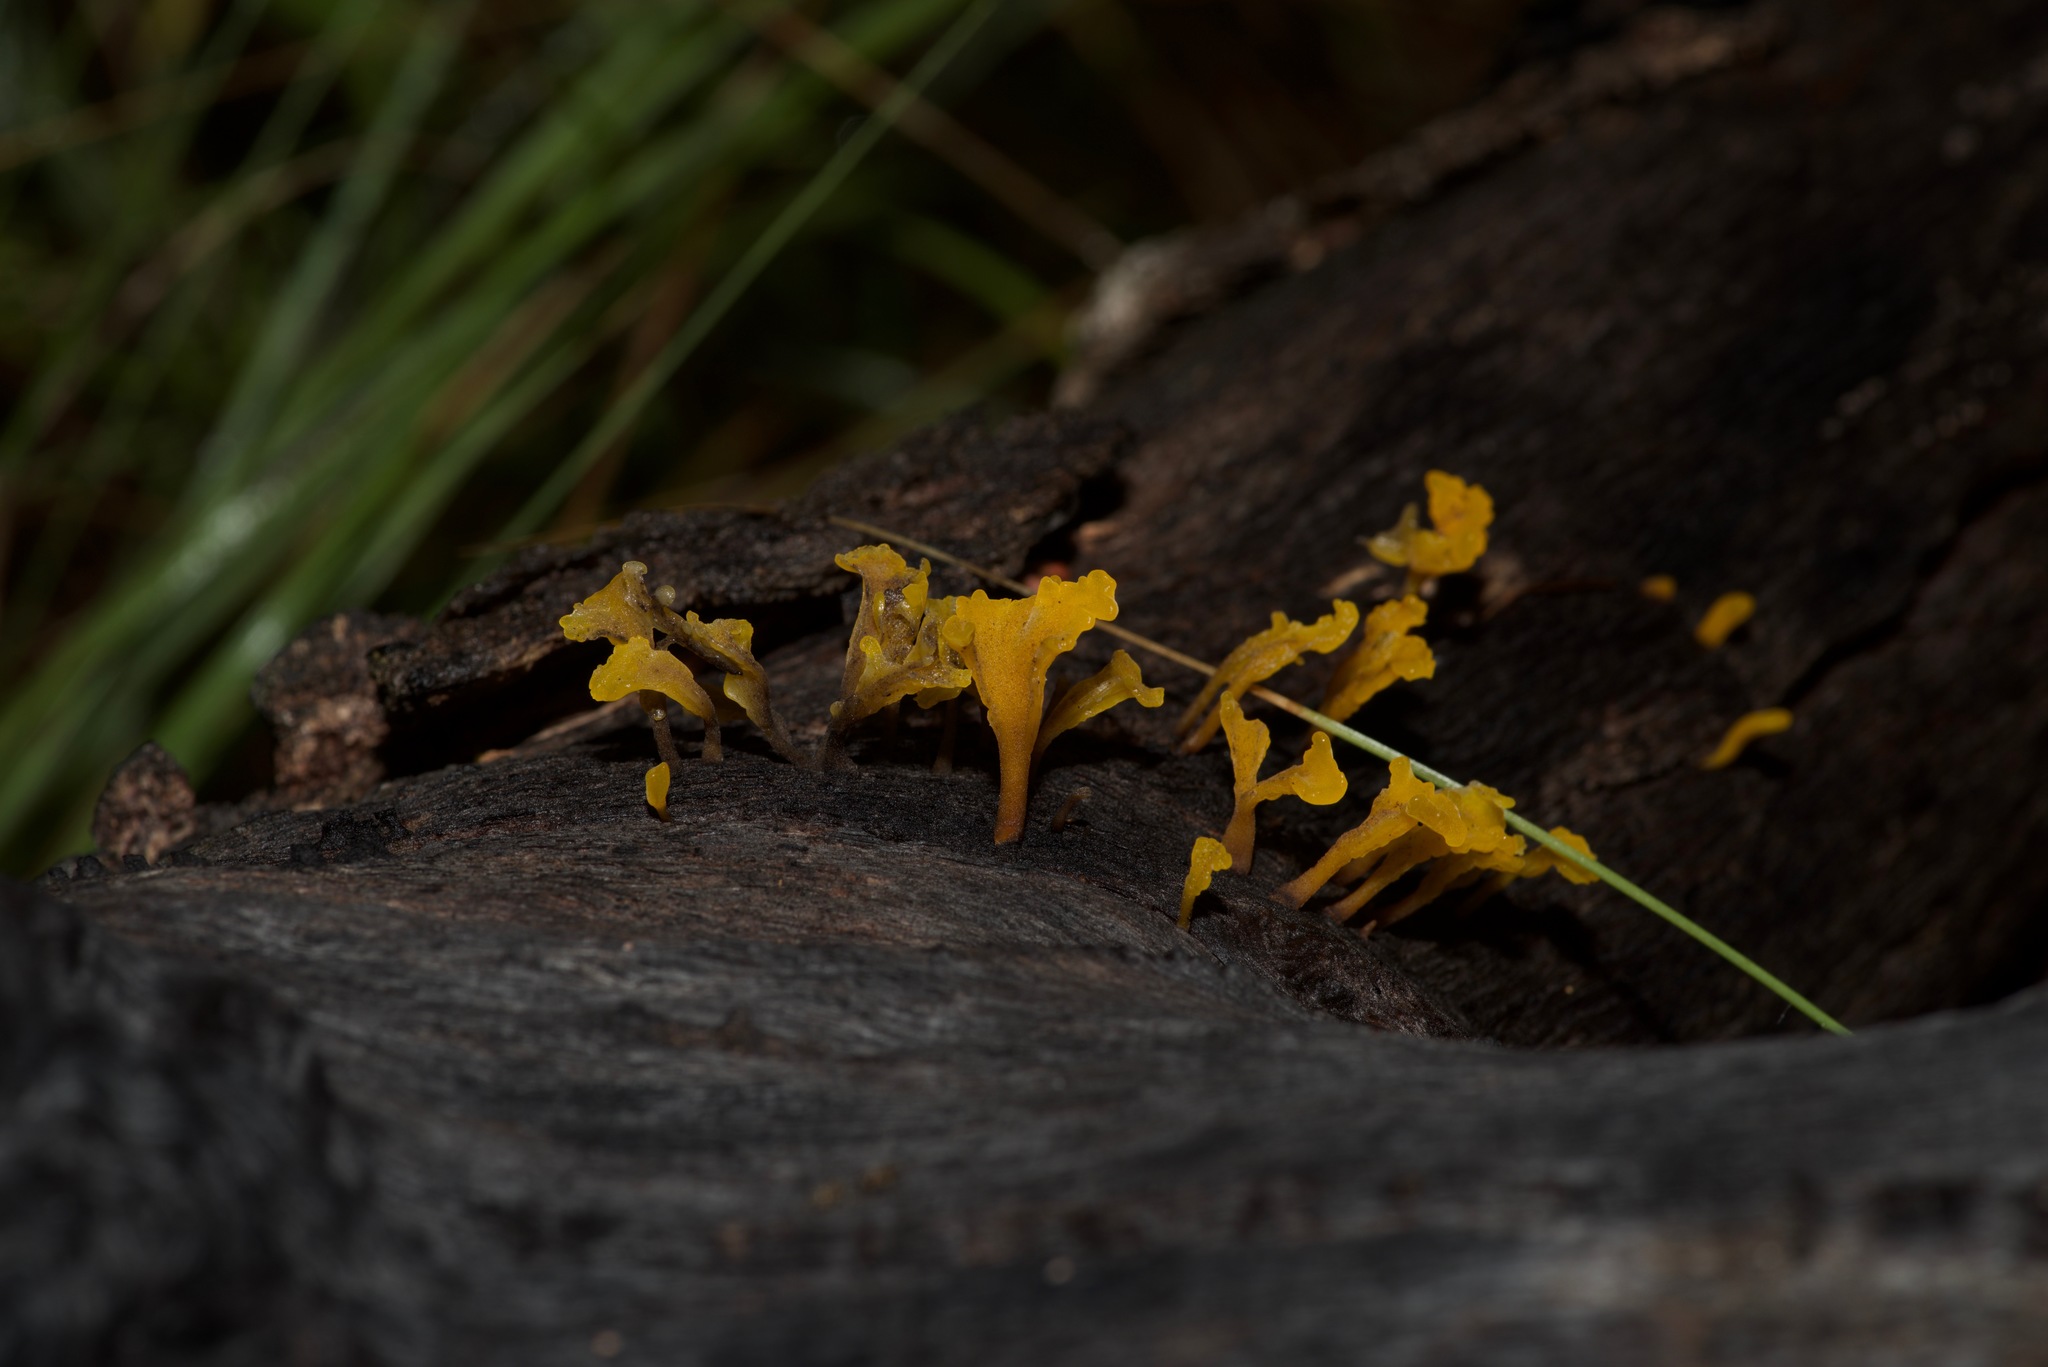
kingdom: Fungi
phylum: Basidiomycota
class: Dacrymycetes
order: Dacrymycetales
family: Dacrymycetaceae
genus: Dacrymyces
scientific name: Dacrymyces spathularius
